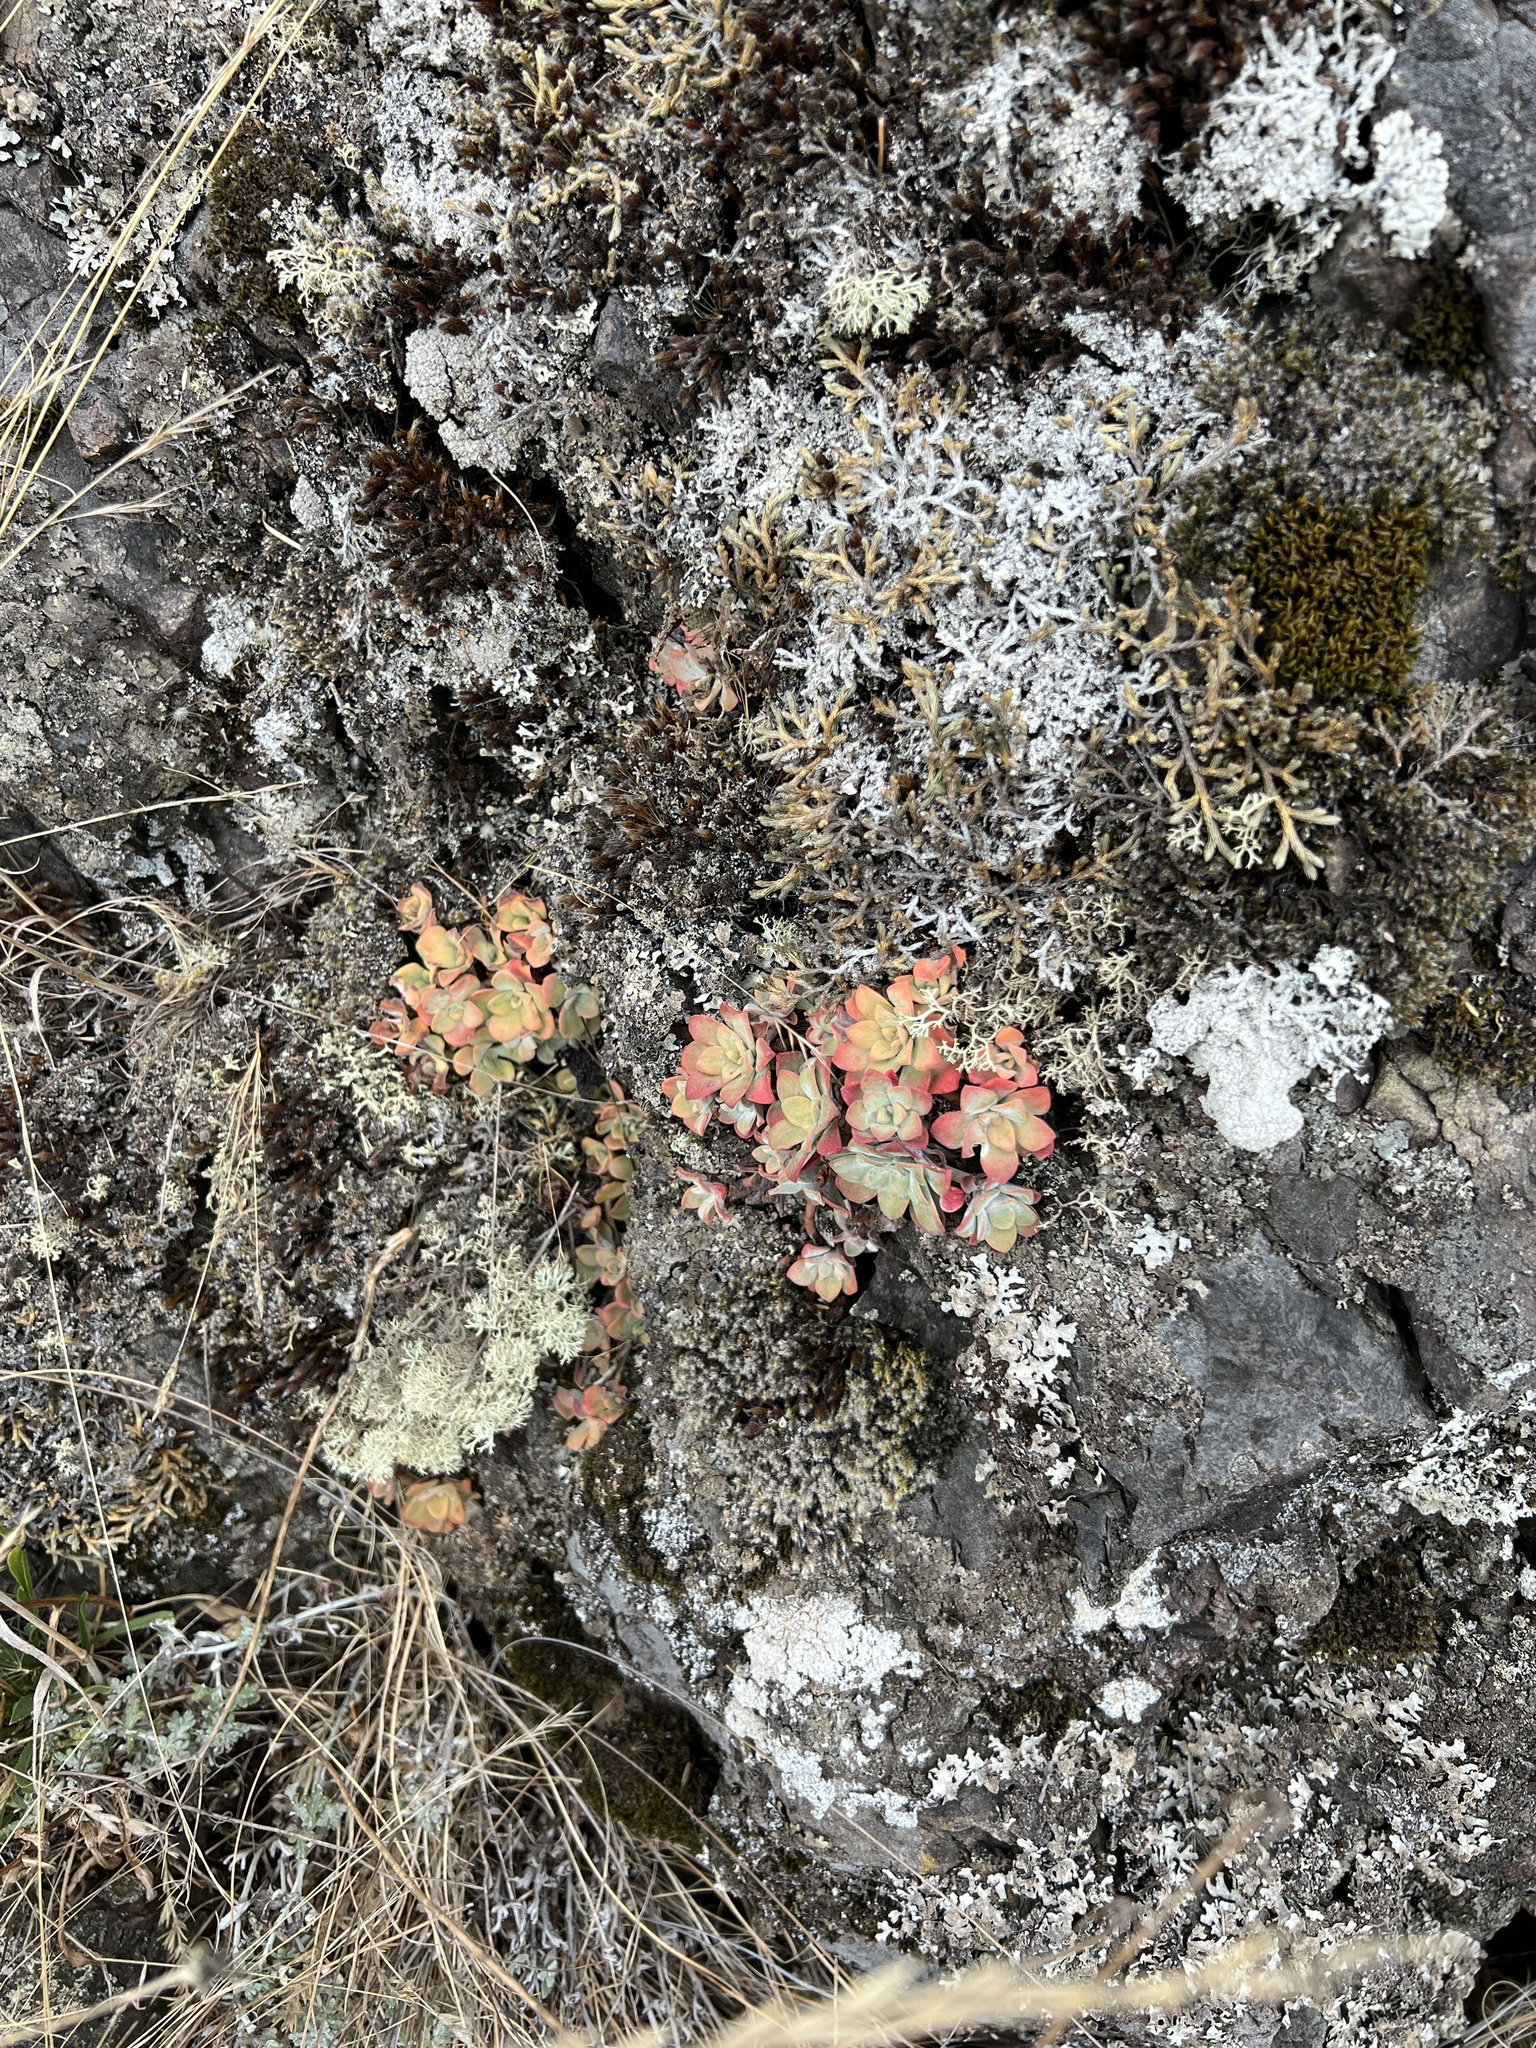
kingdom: Plantae
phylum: Tracheophyta
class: Magnoliopsida
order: Saxifragales
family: Crassulaceae
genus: Sedum
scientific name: Sedum spathulifolium
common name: Colorado stonecrop
